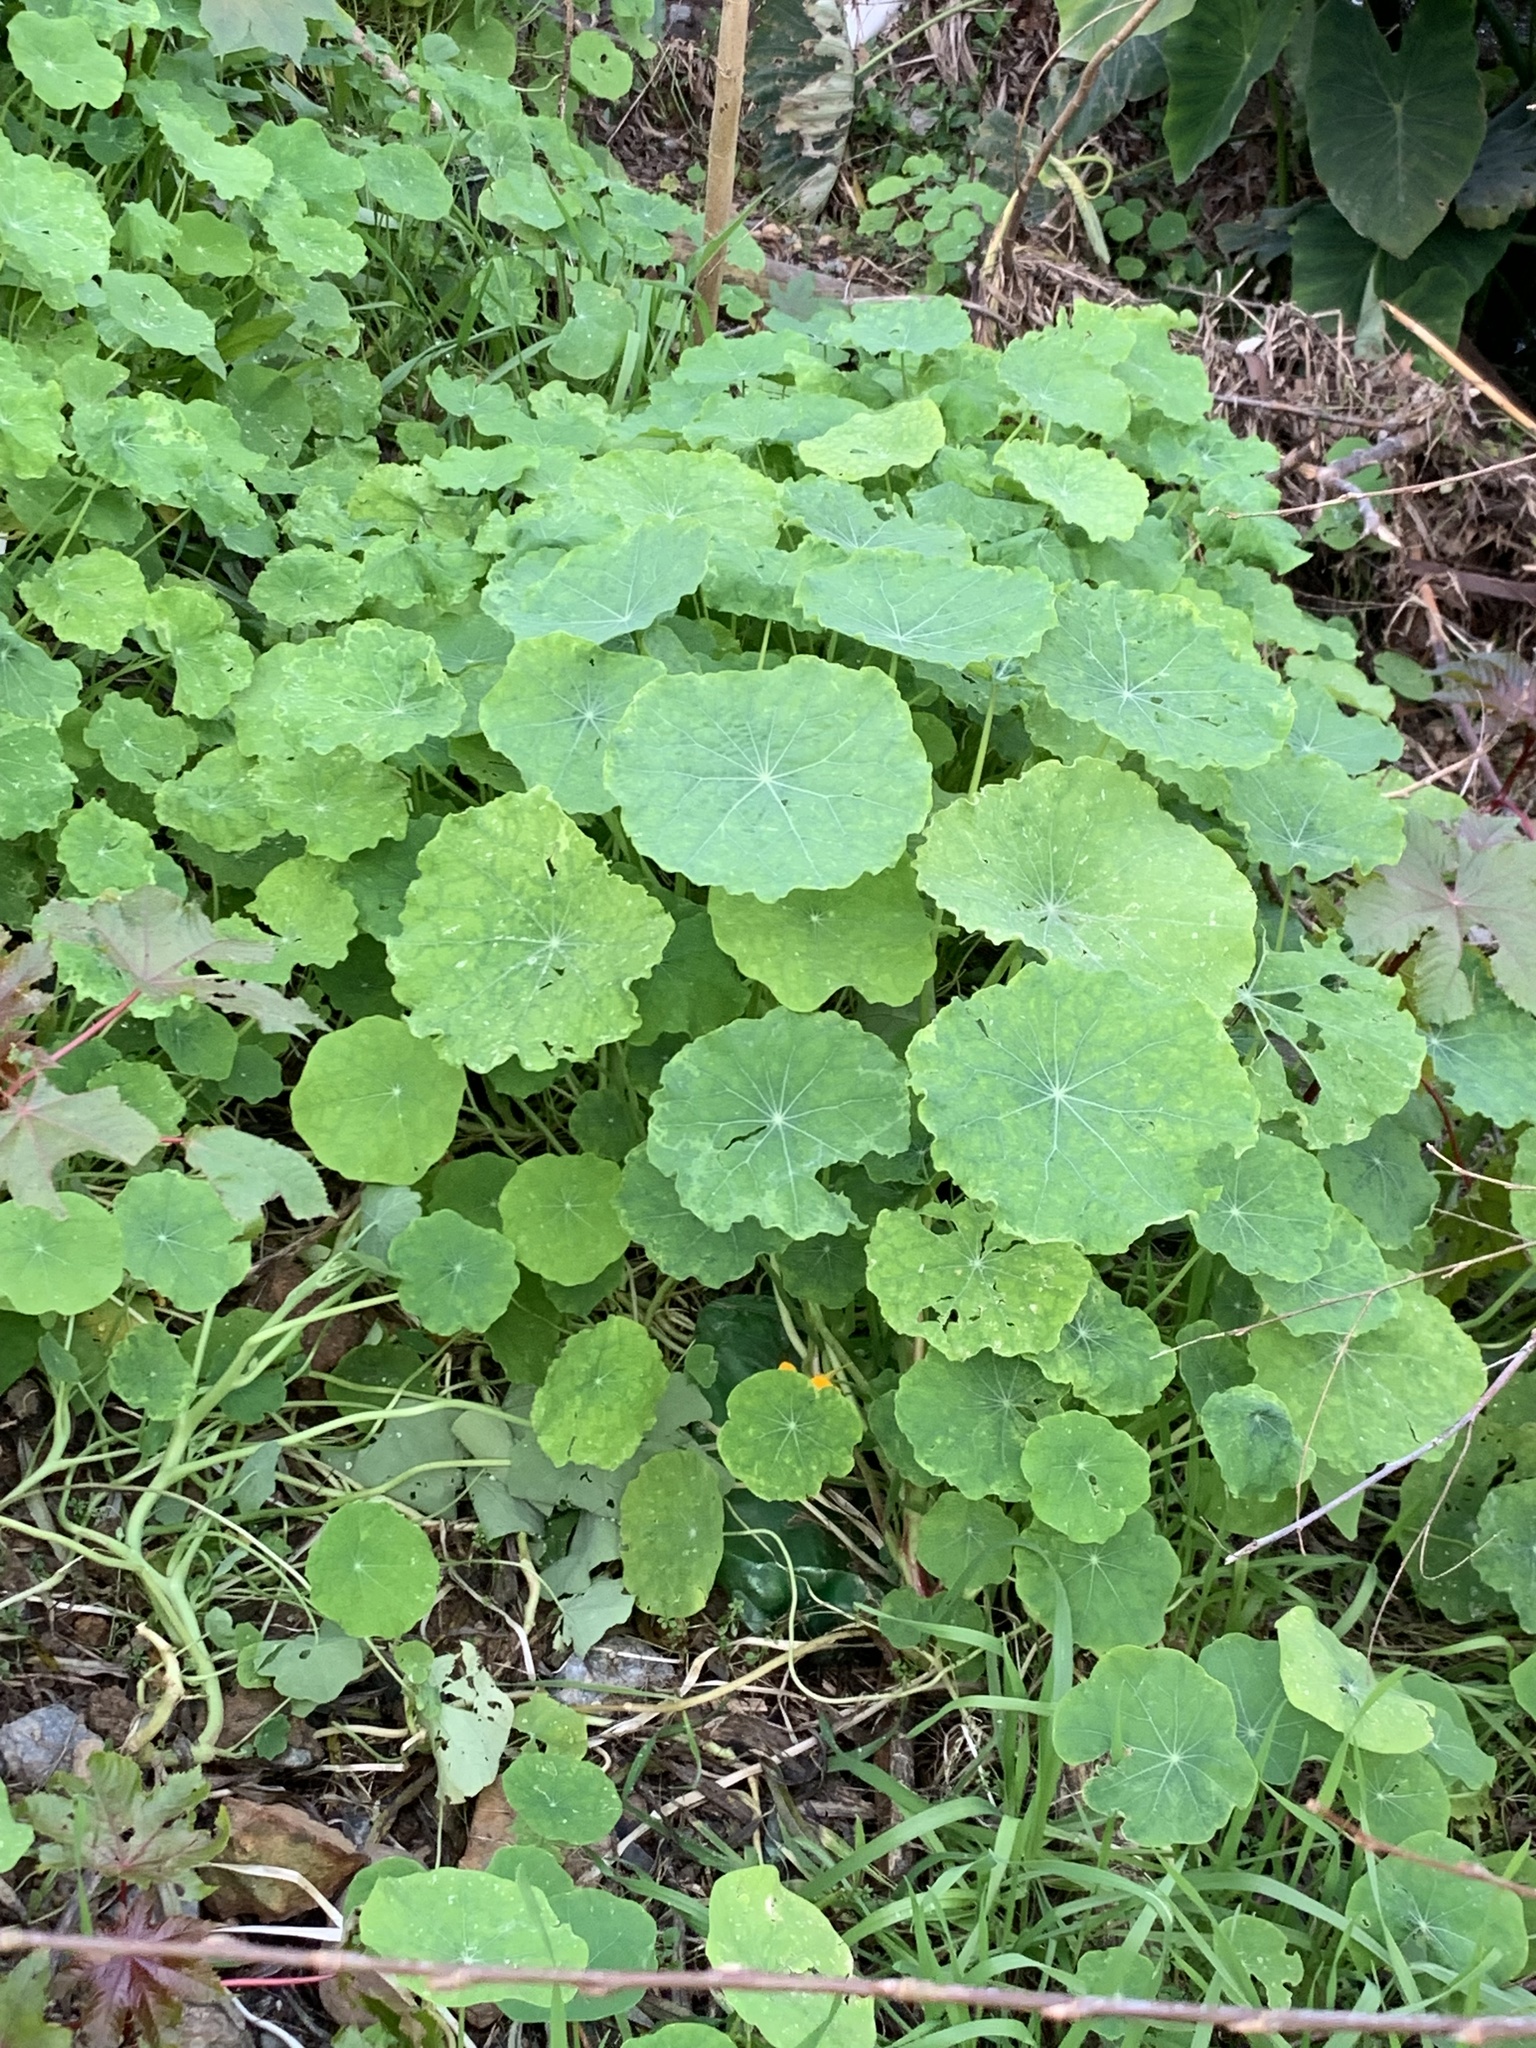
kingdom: Plantae
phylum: Tracheophyta
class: Magnoliopsida
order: Brassicales
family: Tropaeolaceae
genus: Tropaeolum
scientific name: Tropaeolum majus
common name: Nasturtium
